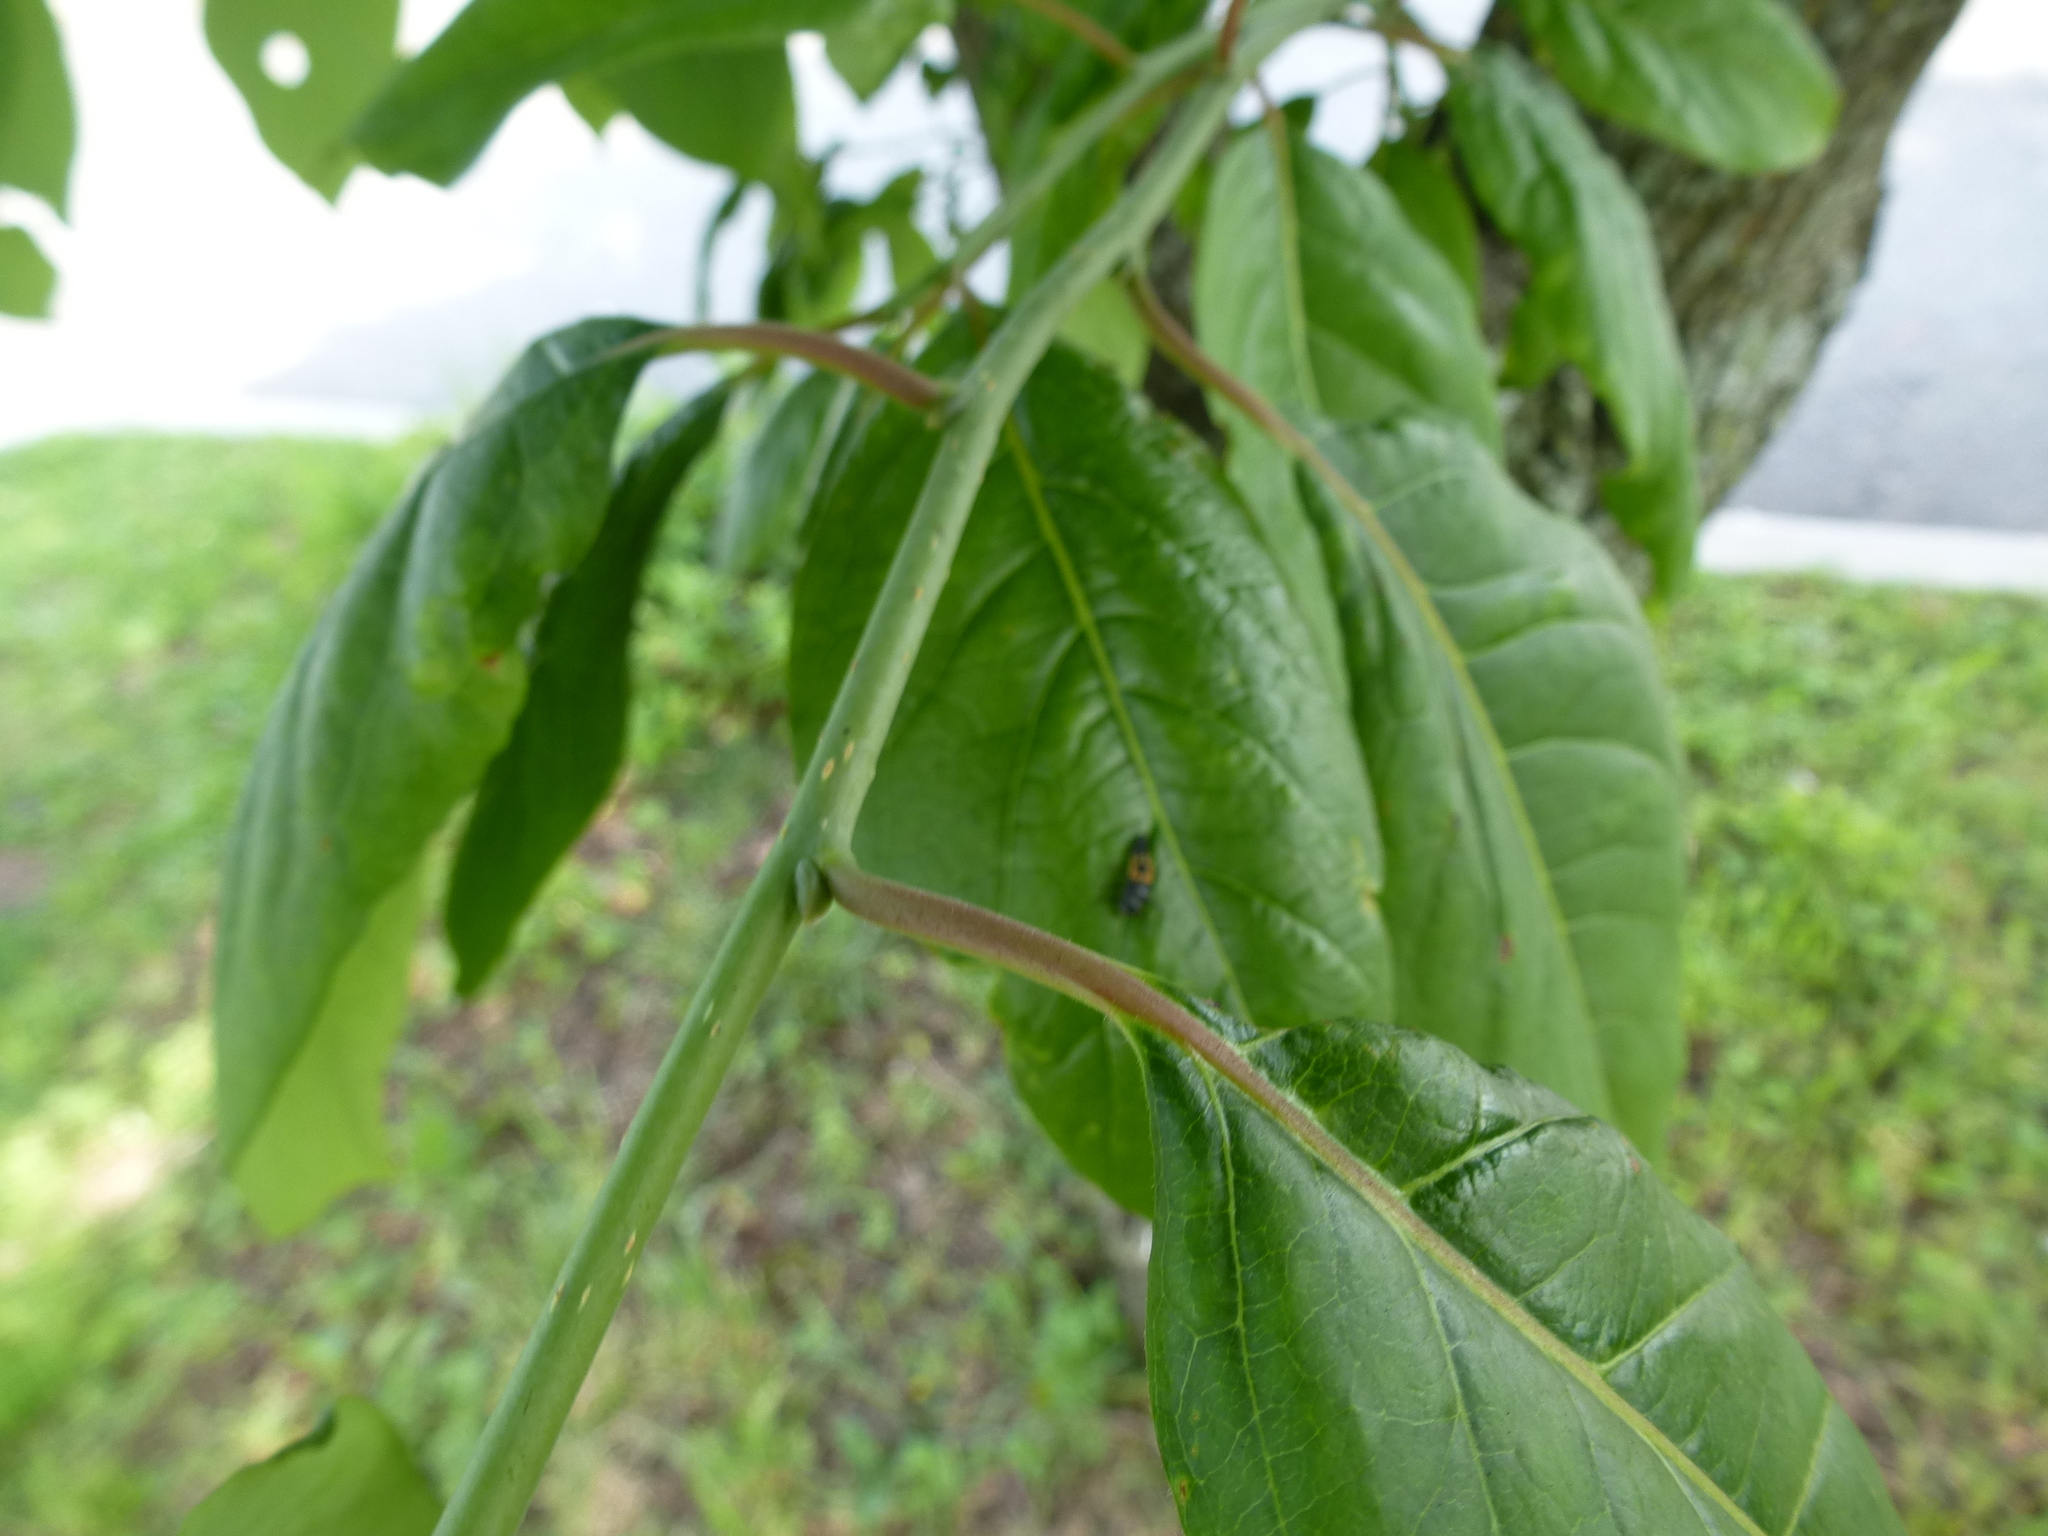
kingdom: Animalia
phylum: Arthropoda
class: Insecta
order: Coleoptera
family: Coccinellidae
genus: Harmonia
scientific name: Harmonia axyridis
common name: Harlequin ladybird
